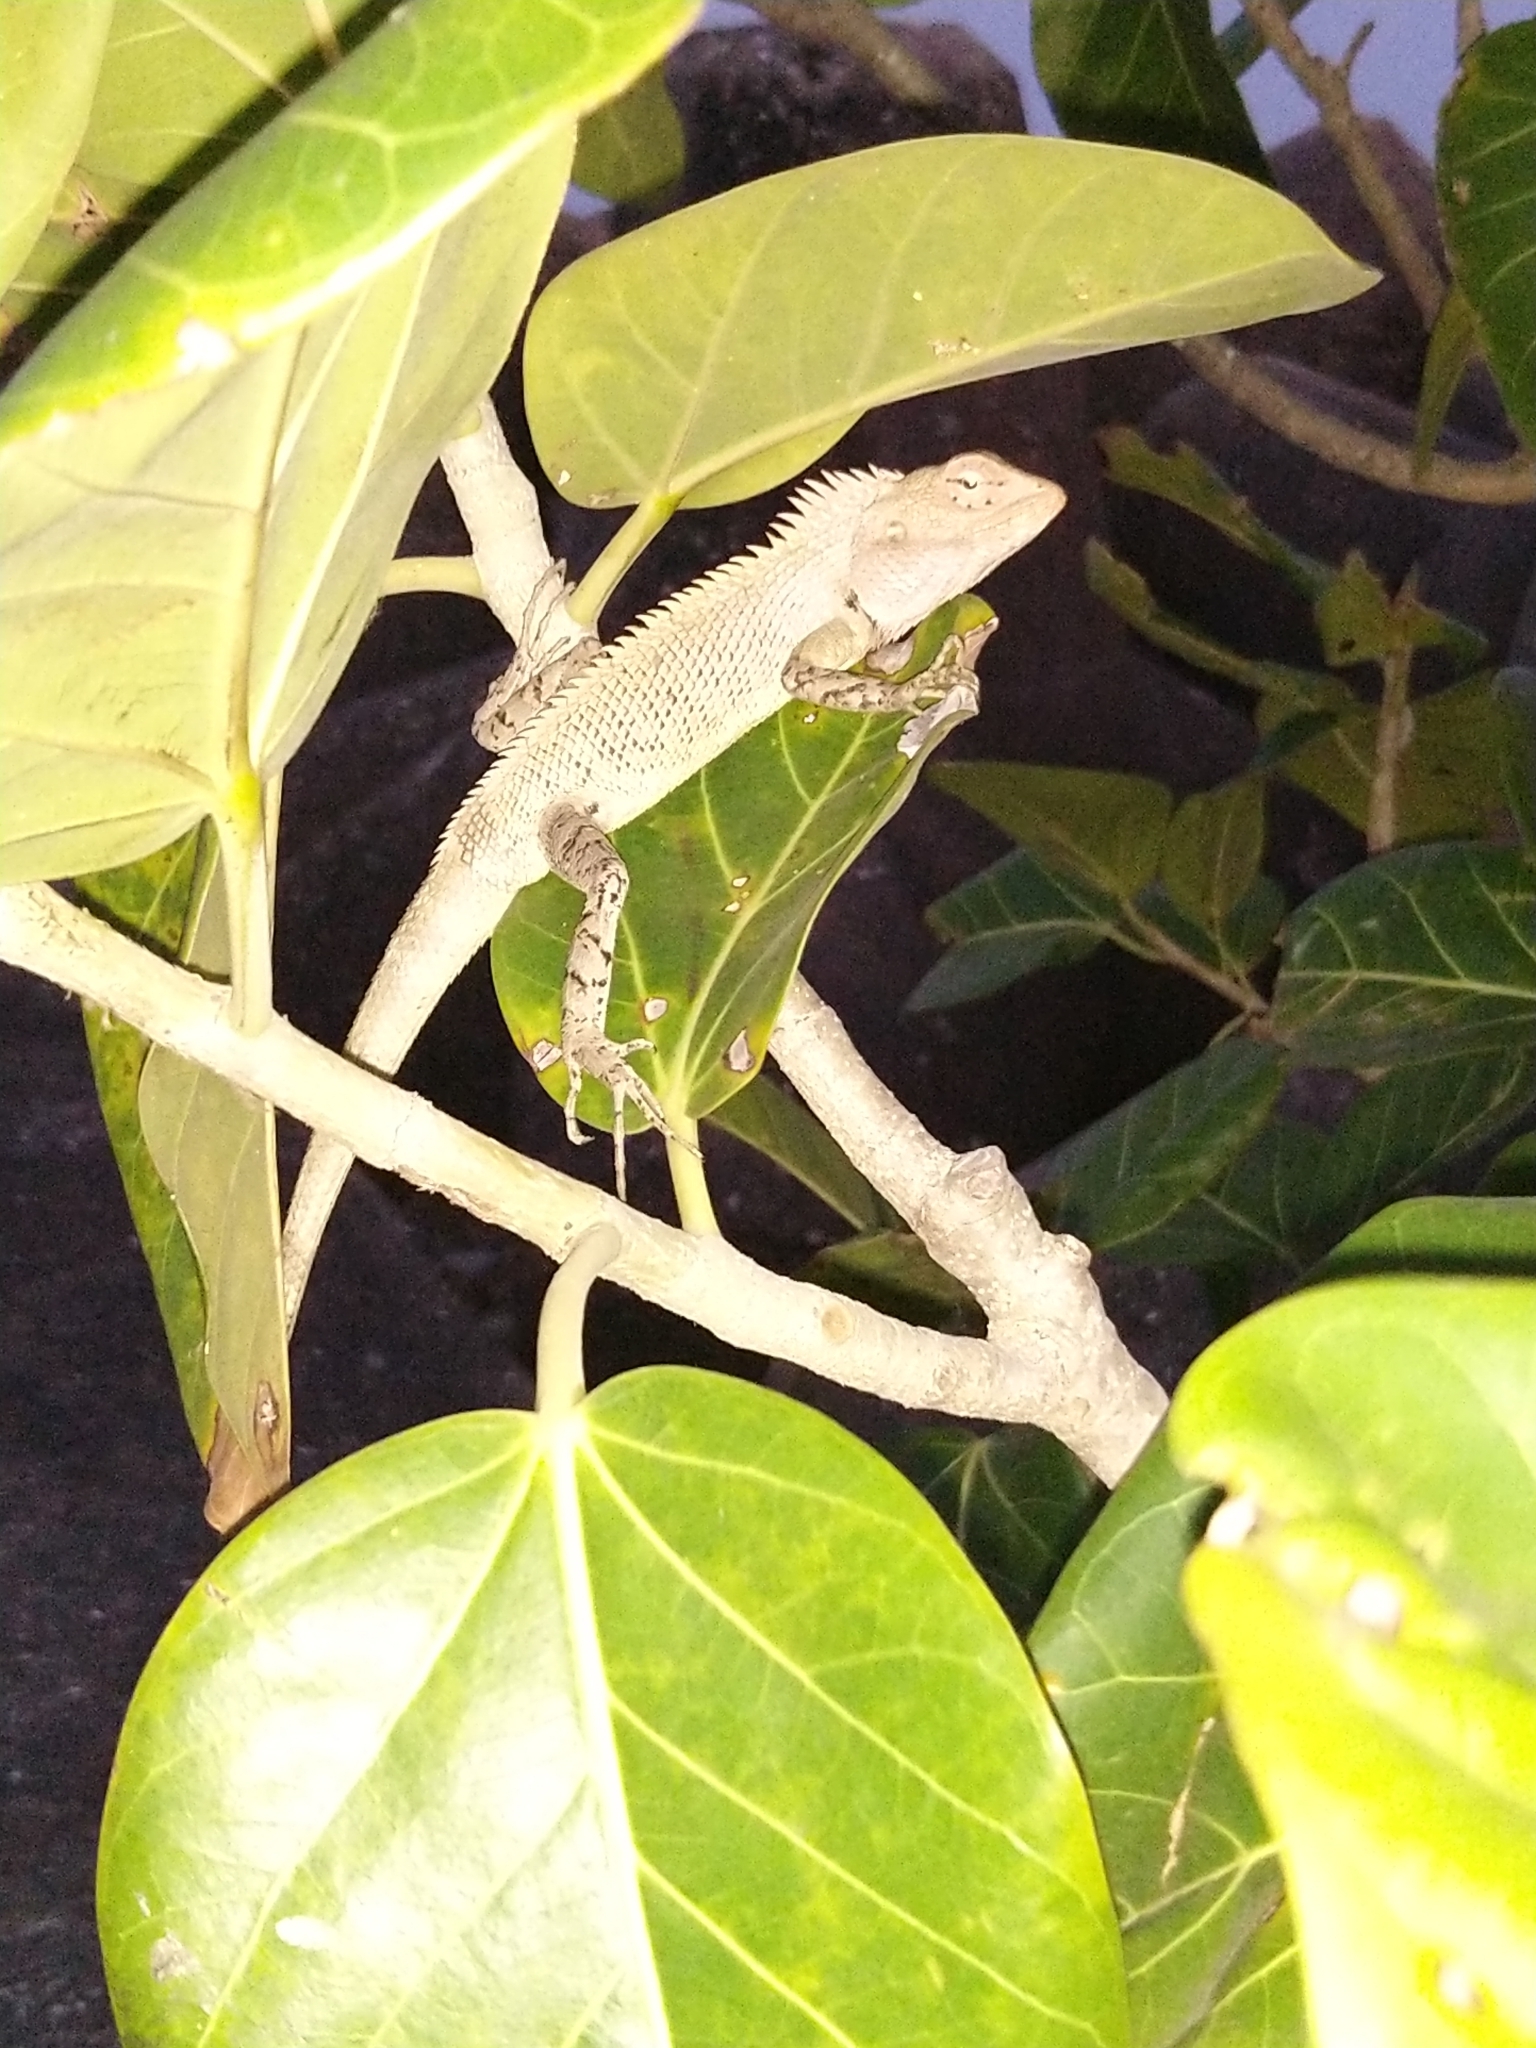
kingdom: Animalia
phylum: Chordata
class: Squamata
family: Agamidae
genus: Calotes
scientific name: Calotes versicolor
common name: Oriental garden lizard
